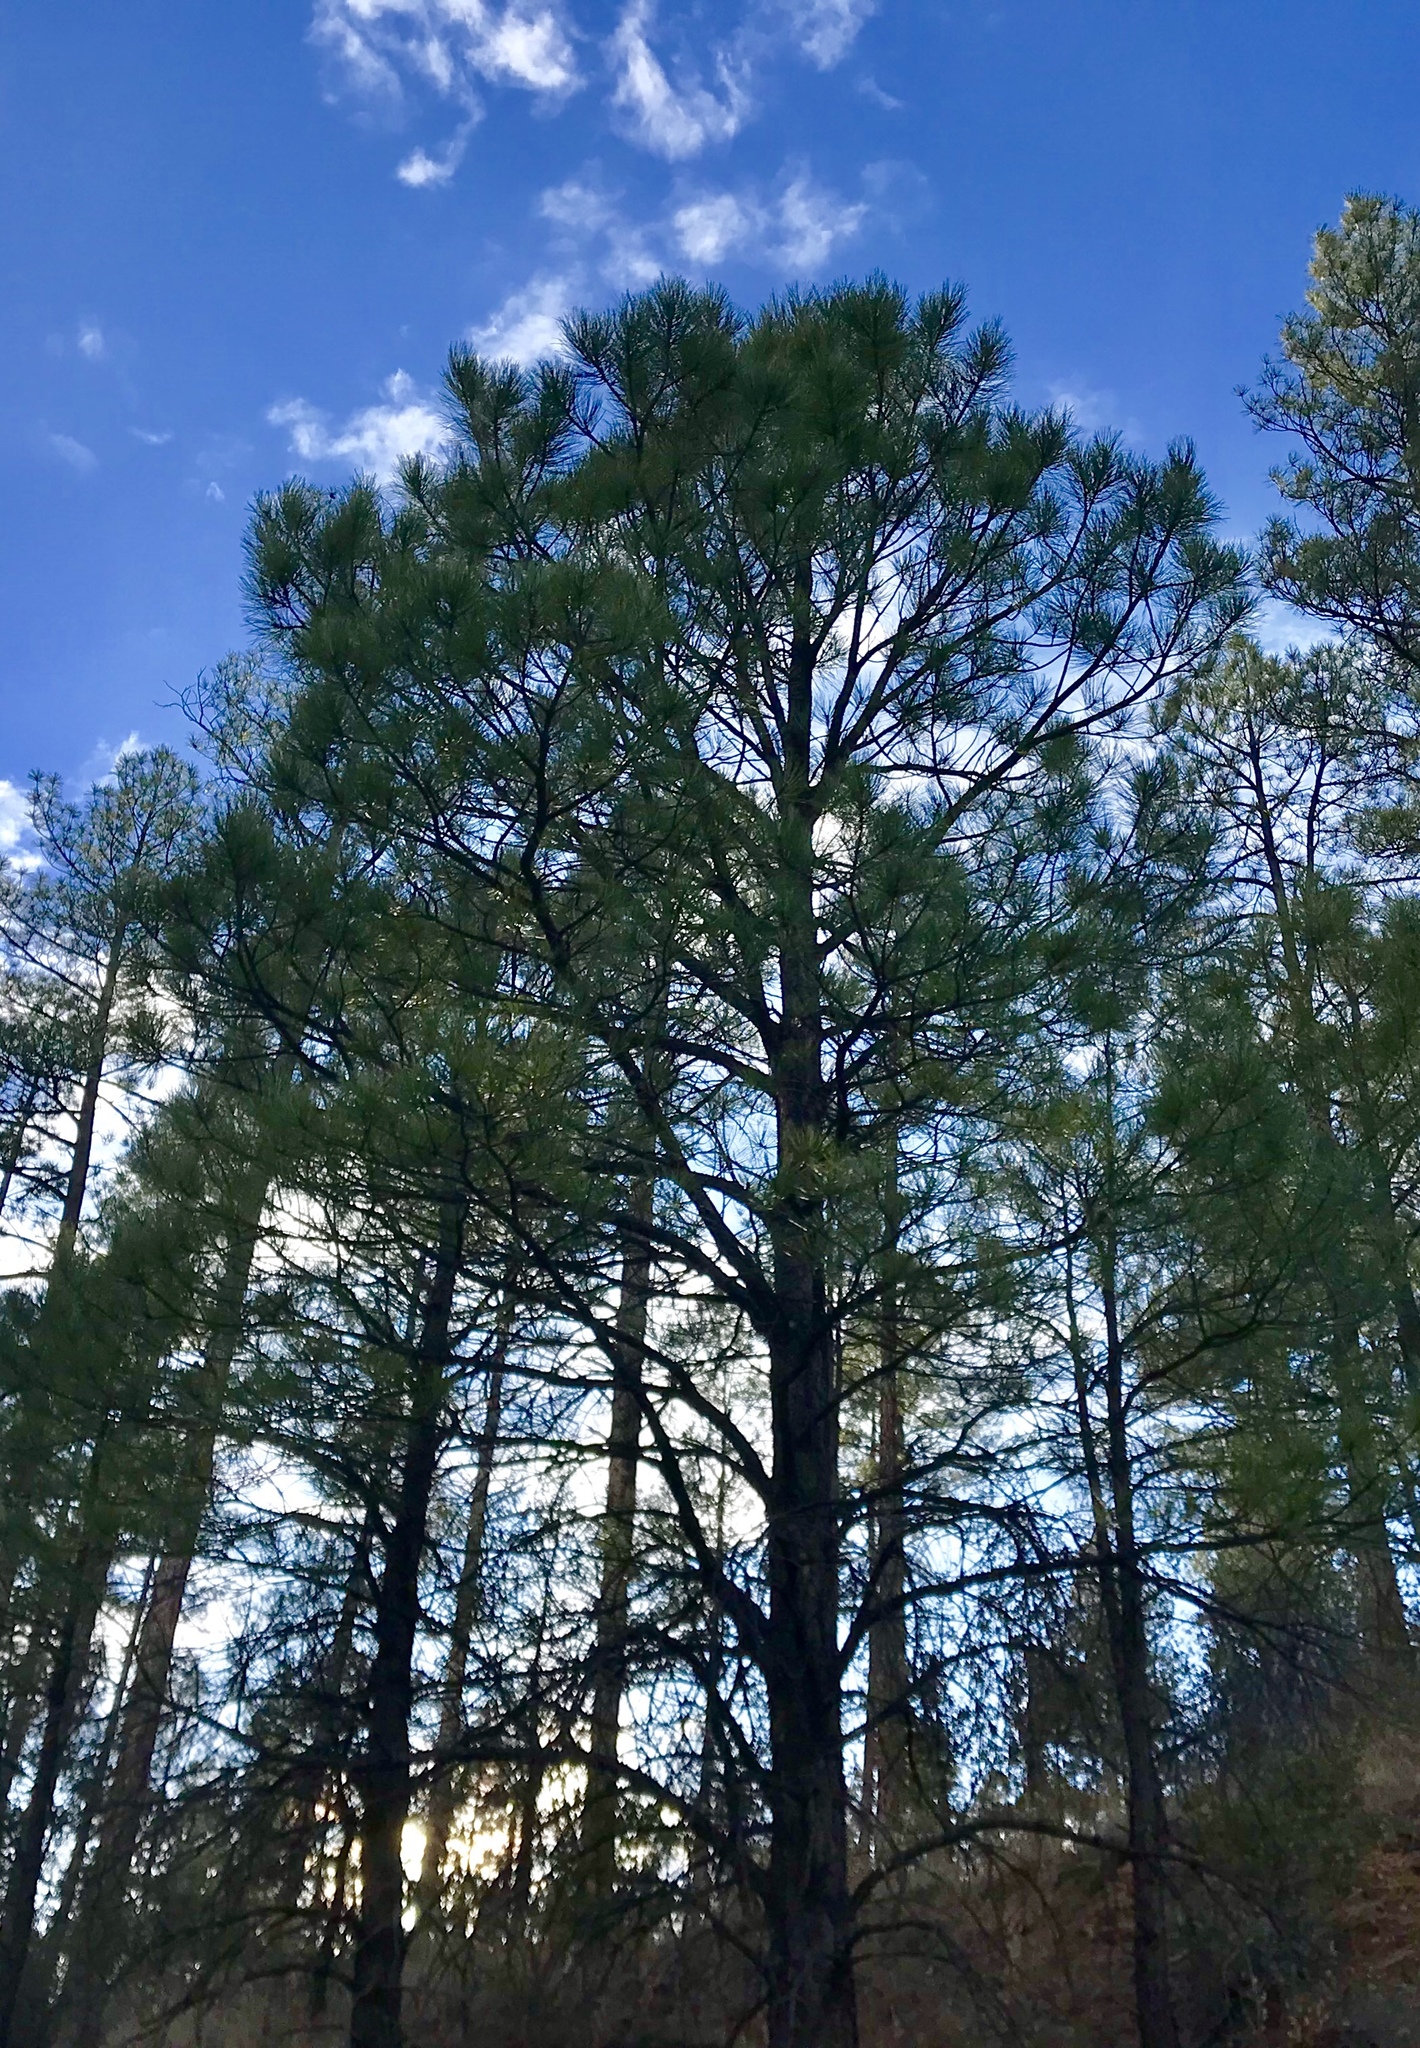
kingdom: Plantae
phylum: Tracheophyta
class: Pinopsida
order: Pinales
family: Pinaceae
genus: Pinus
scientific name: Pinus ponderosa
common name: Western yellow-pine
